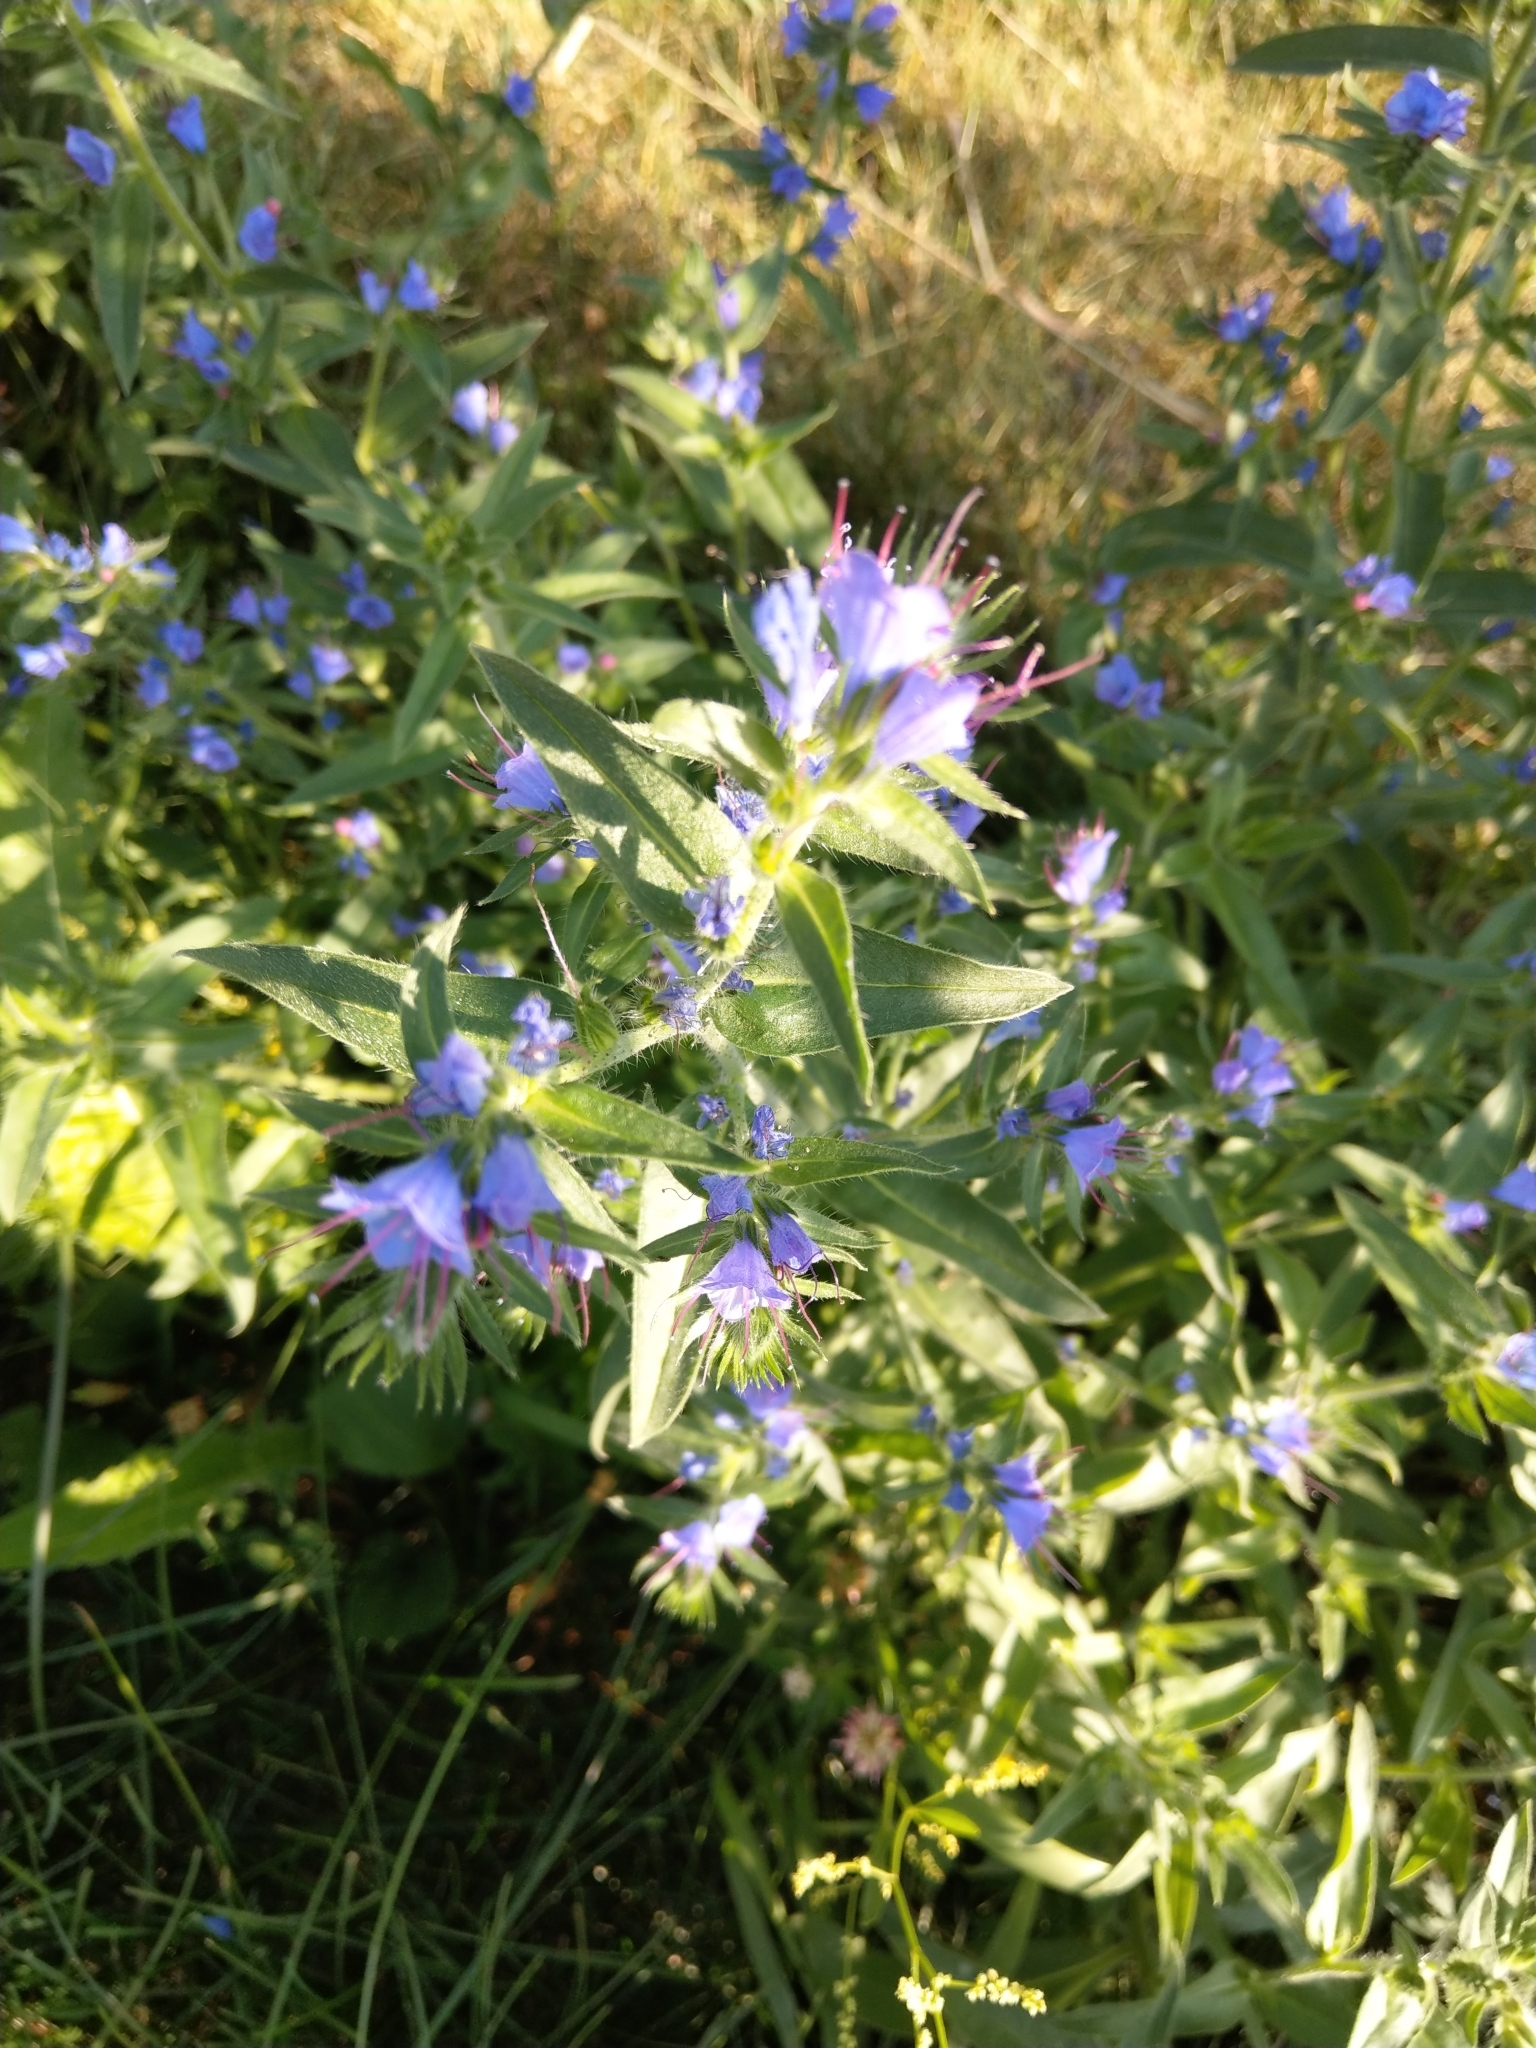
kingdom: Plantae
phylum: Tracheophyta
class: Magnoliopsida
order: Boraginales
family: Boraginaceae
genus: Echium
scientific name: Echium vulgare
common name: Common viper's bugloss
